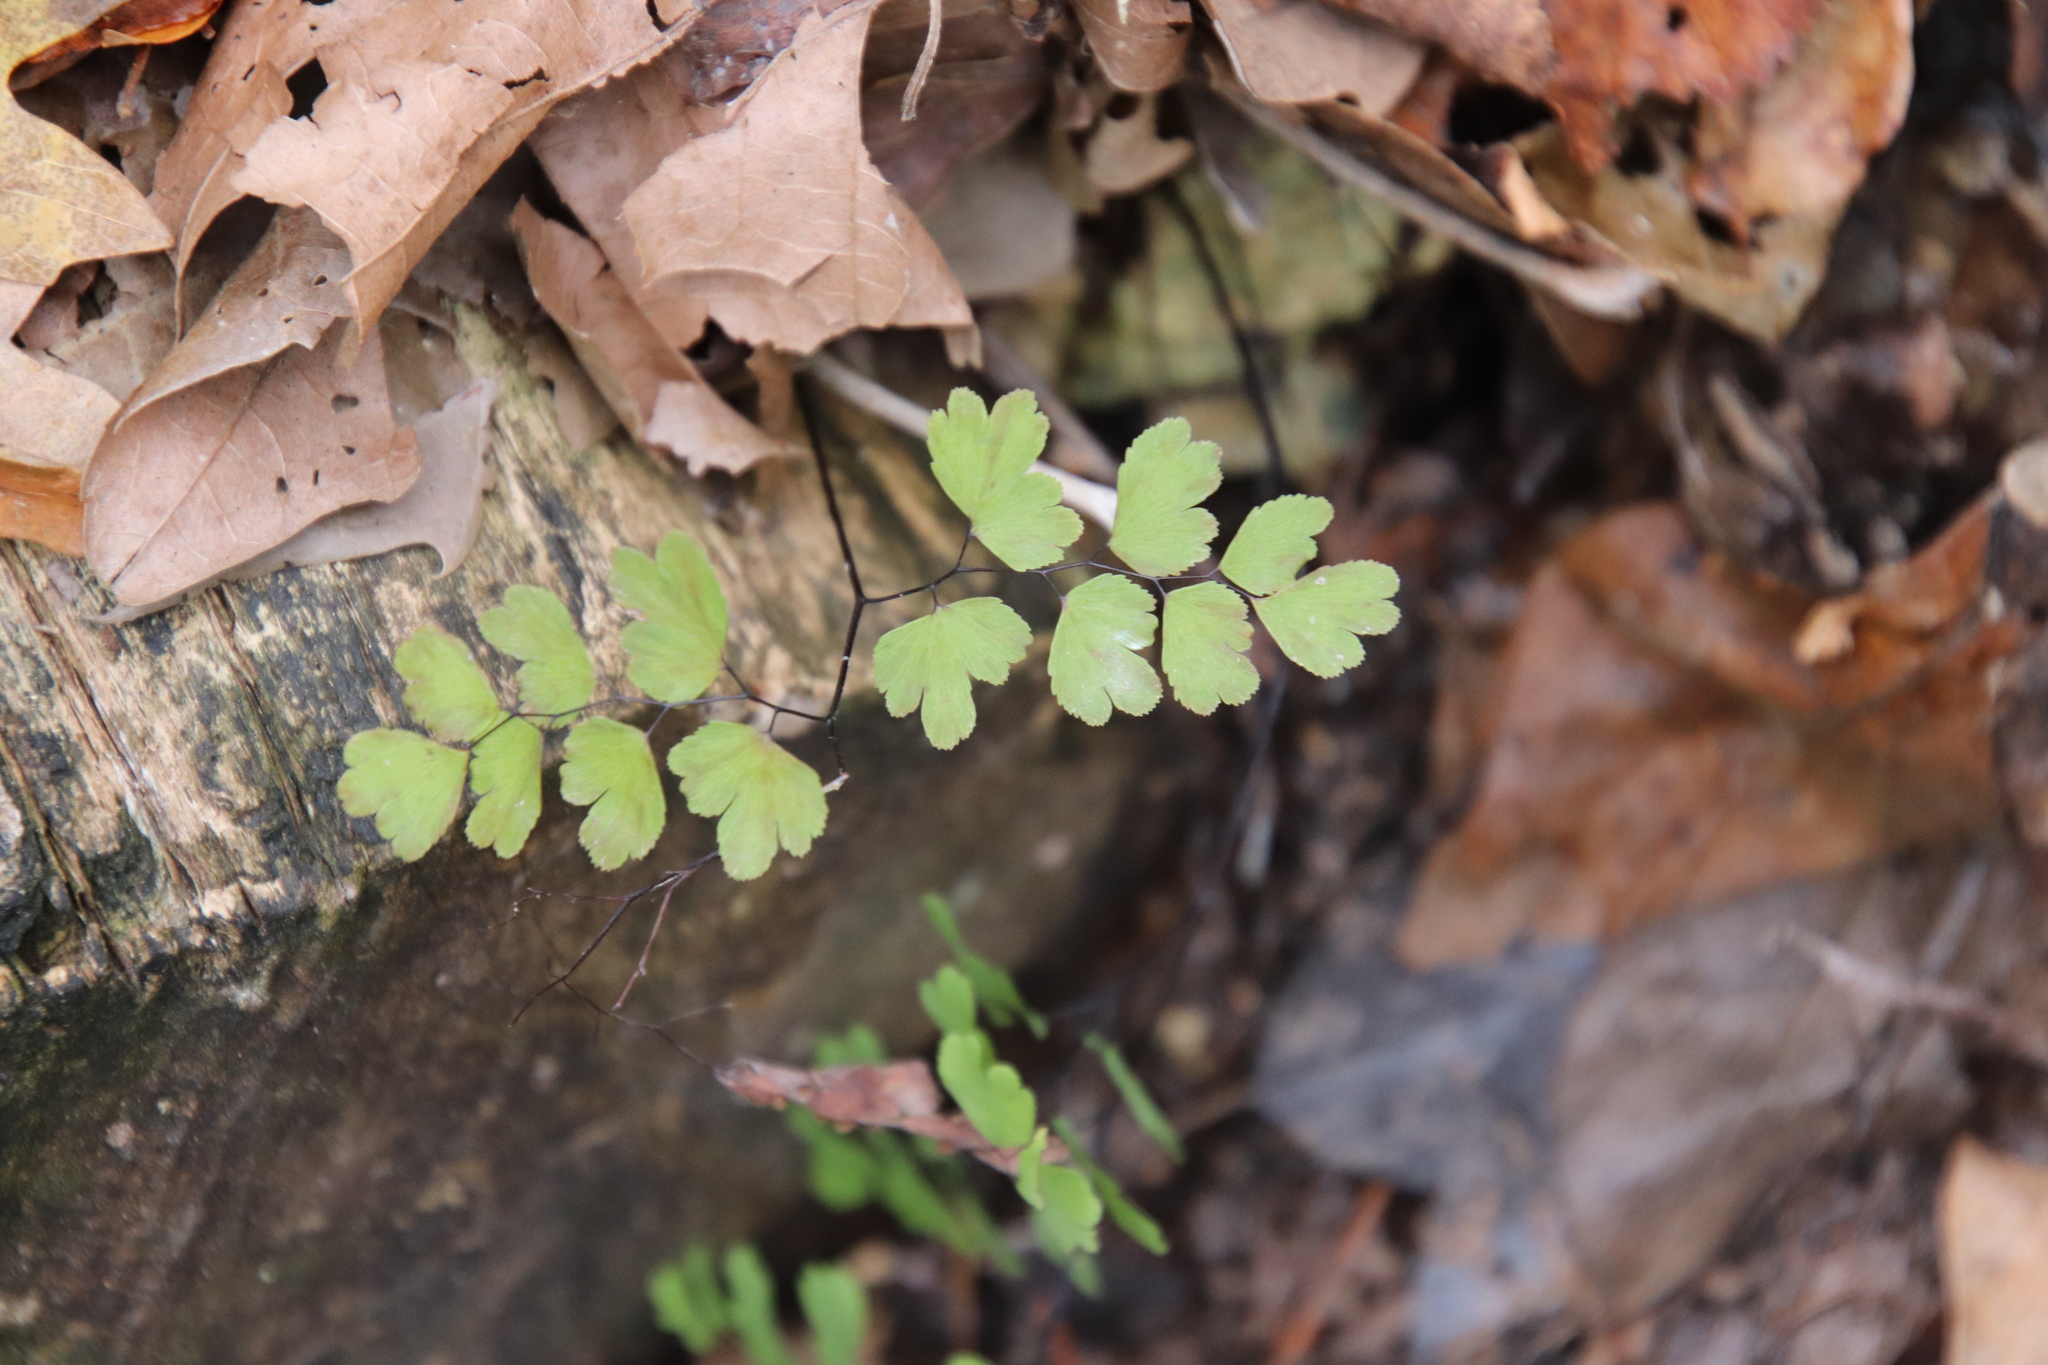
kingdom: Plantae
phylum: Tracheophyta
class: Polypodiopsida
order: Polypodiales
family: Pteridaceae
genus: Adiantum
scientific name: Adiantum capillus-veneris
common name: Maidenhair fern
